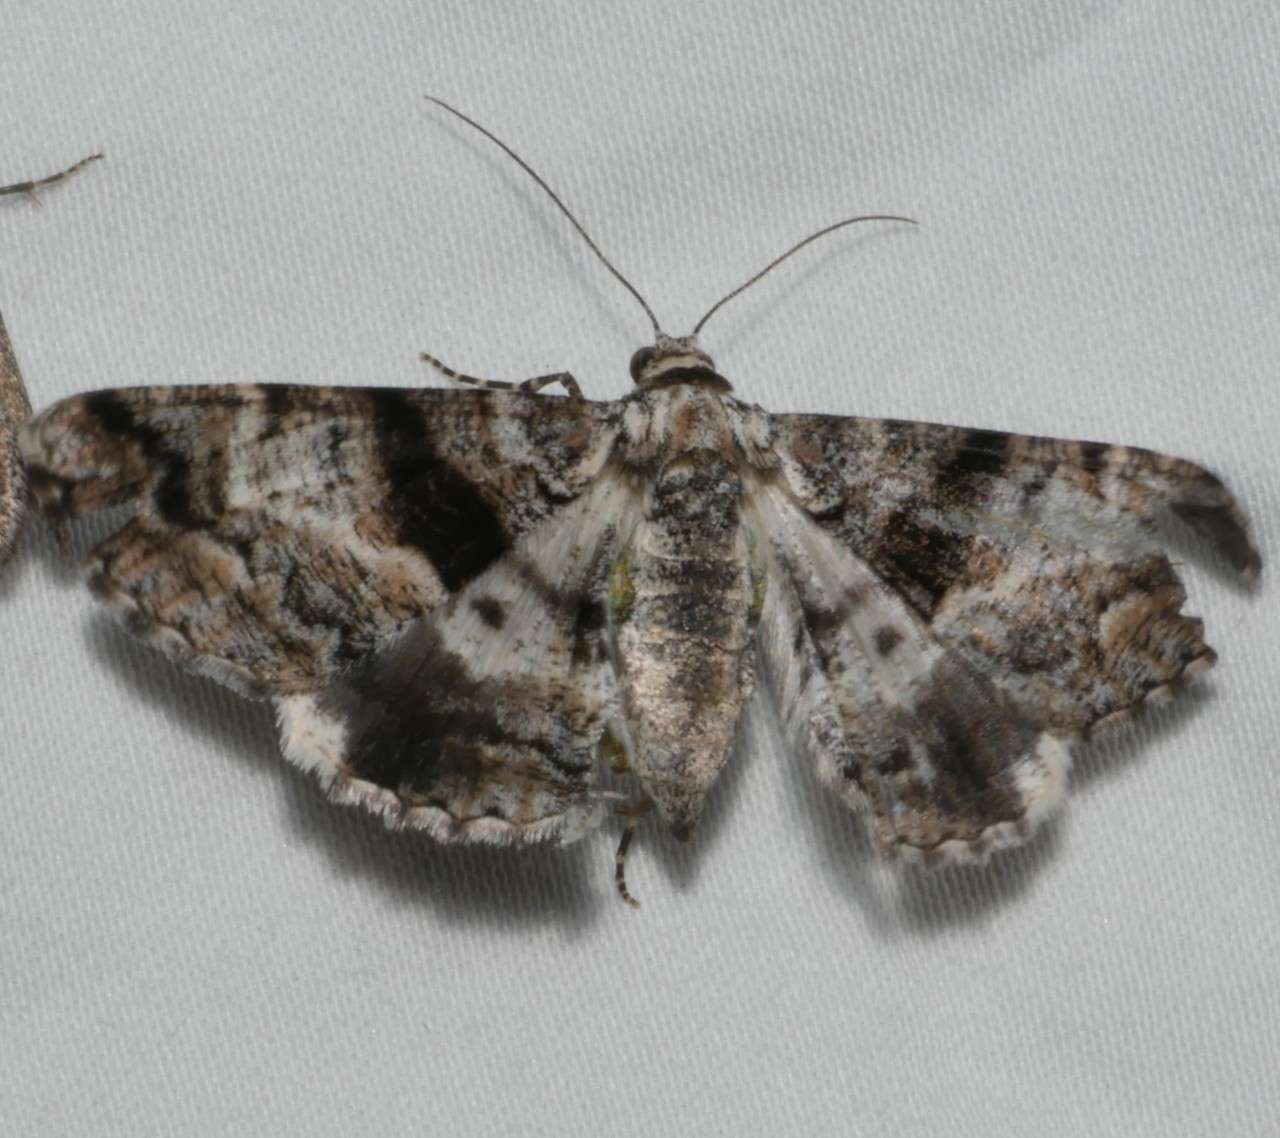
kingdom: Animalia
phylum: Arthropoda
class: Insecta
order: Lepidoptera
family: Geometridae
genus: Gastrinodes
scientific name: Gastrinodes argoplaca
